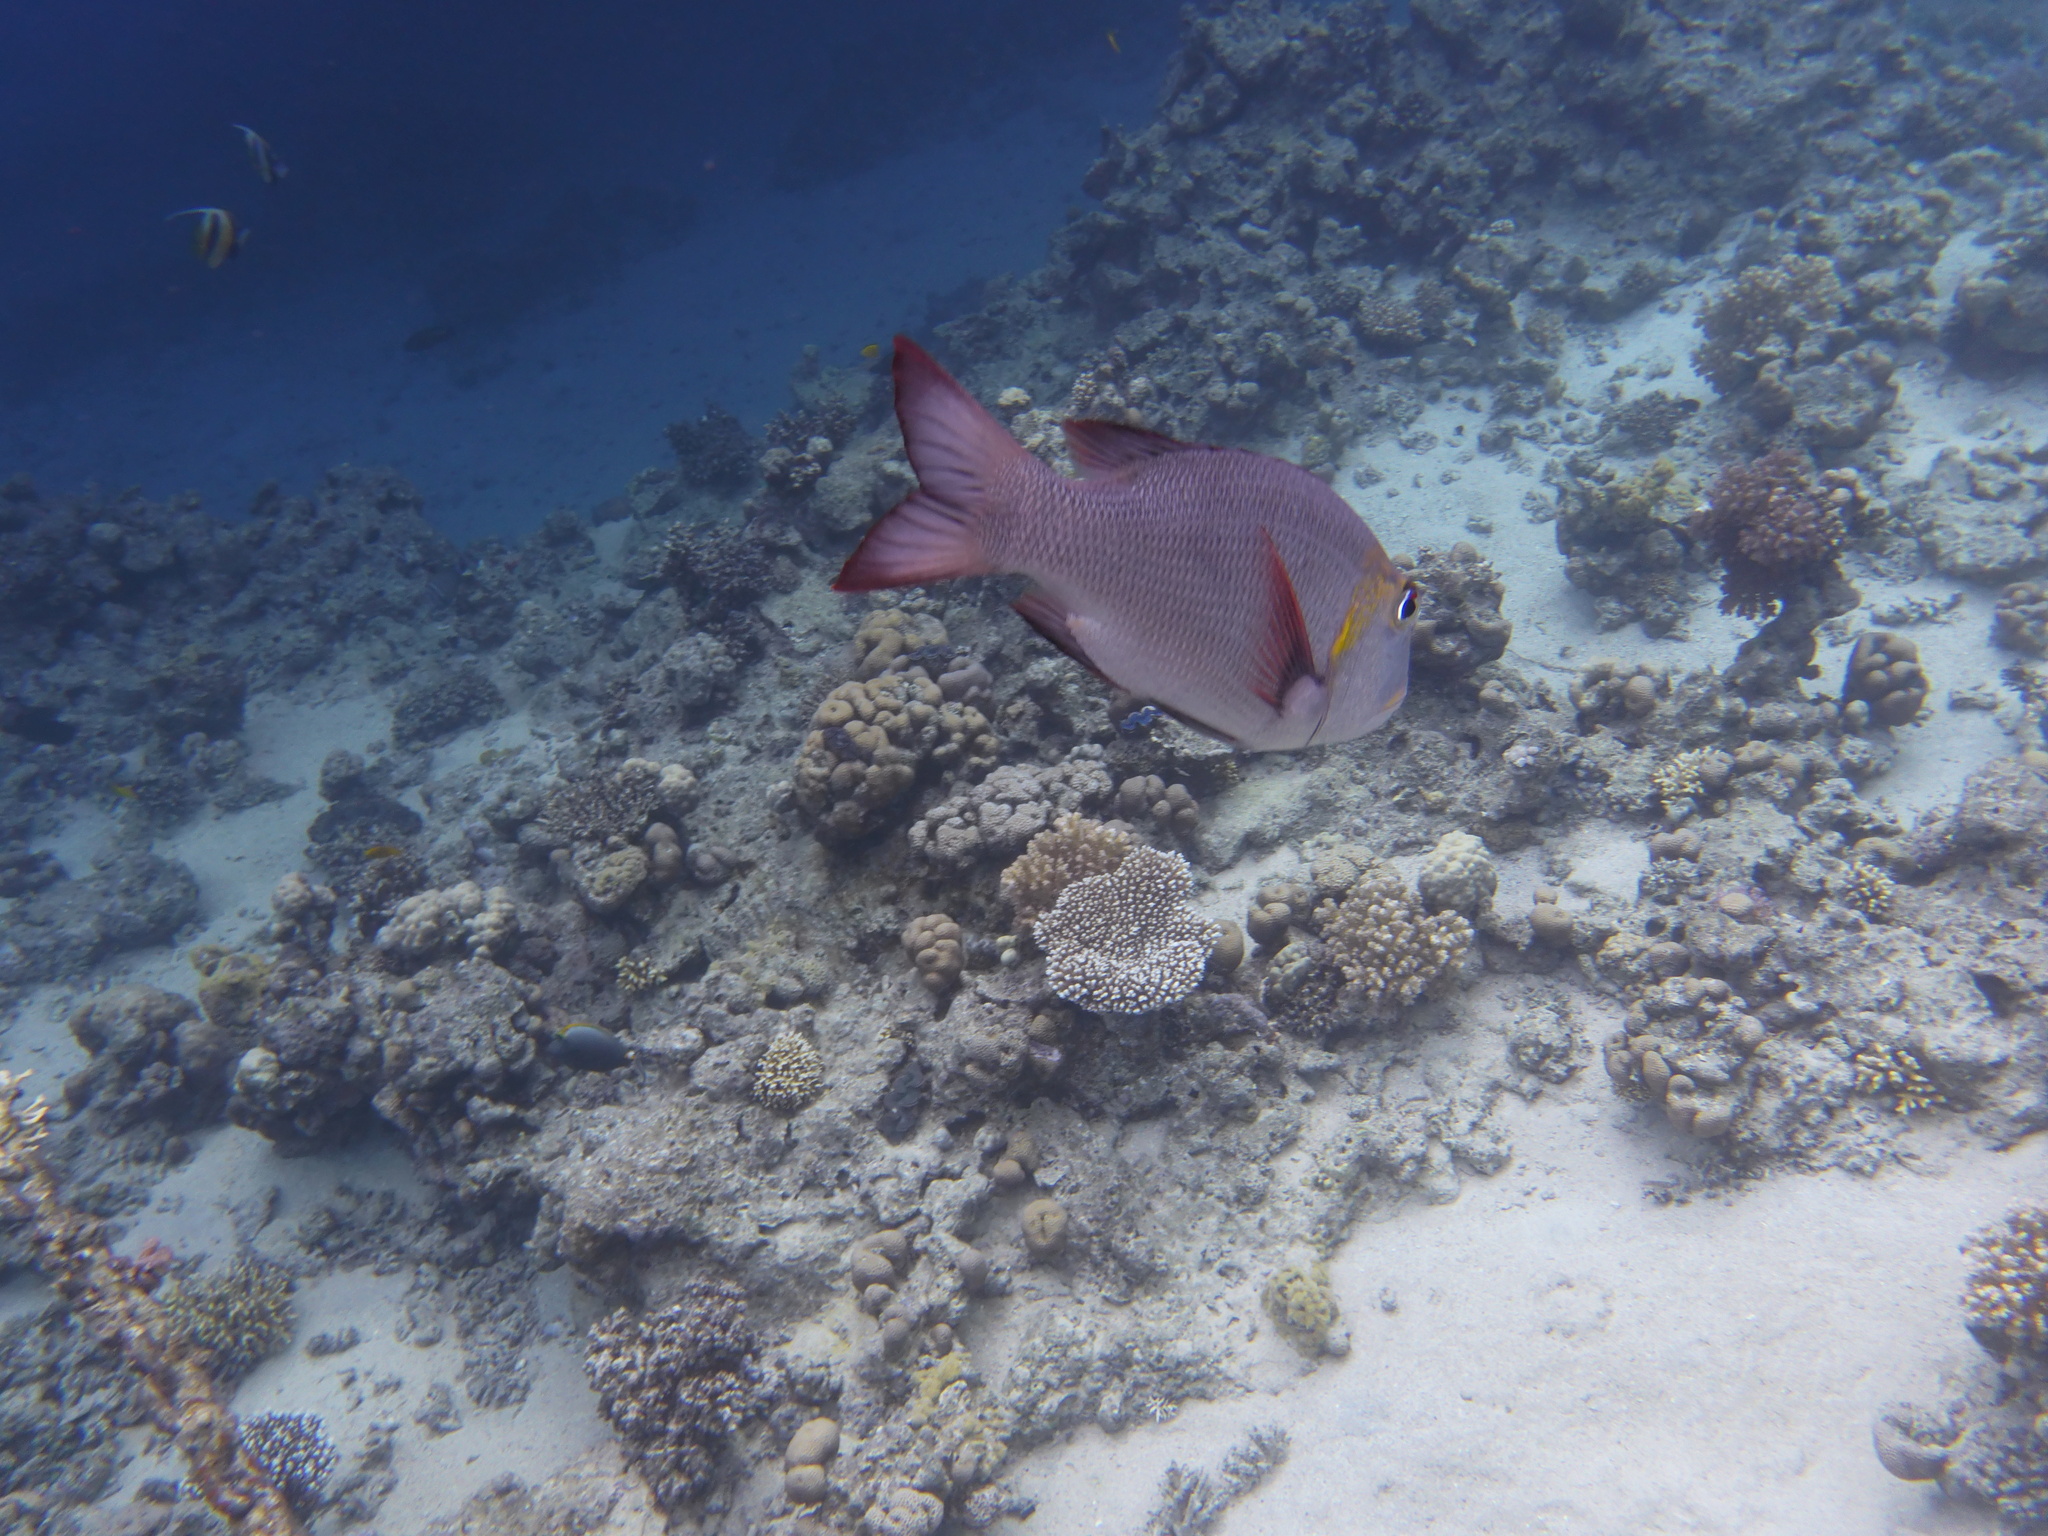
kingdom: Animalia
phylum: Chordata
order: Perciformes
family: Lethrinidae
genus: Monotaxis
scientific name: Monotaxis grandoculis
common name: Bigeye emperor
